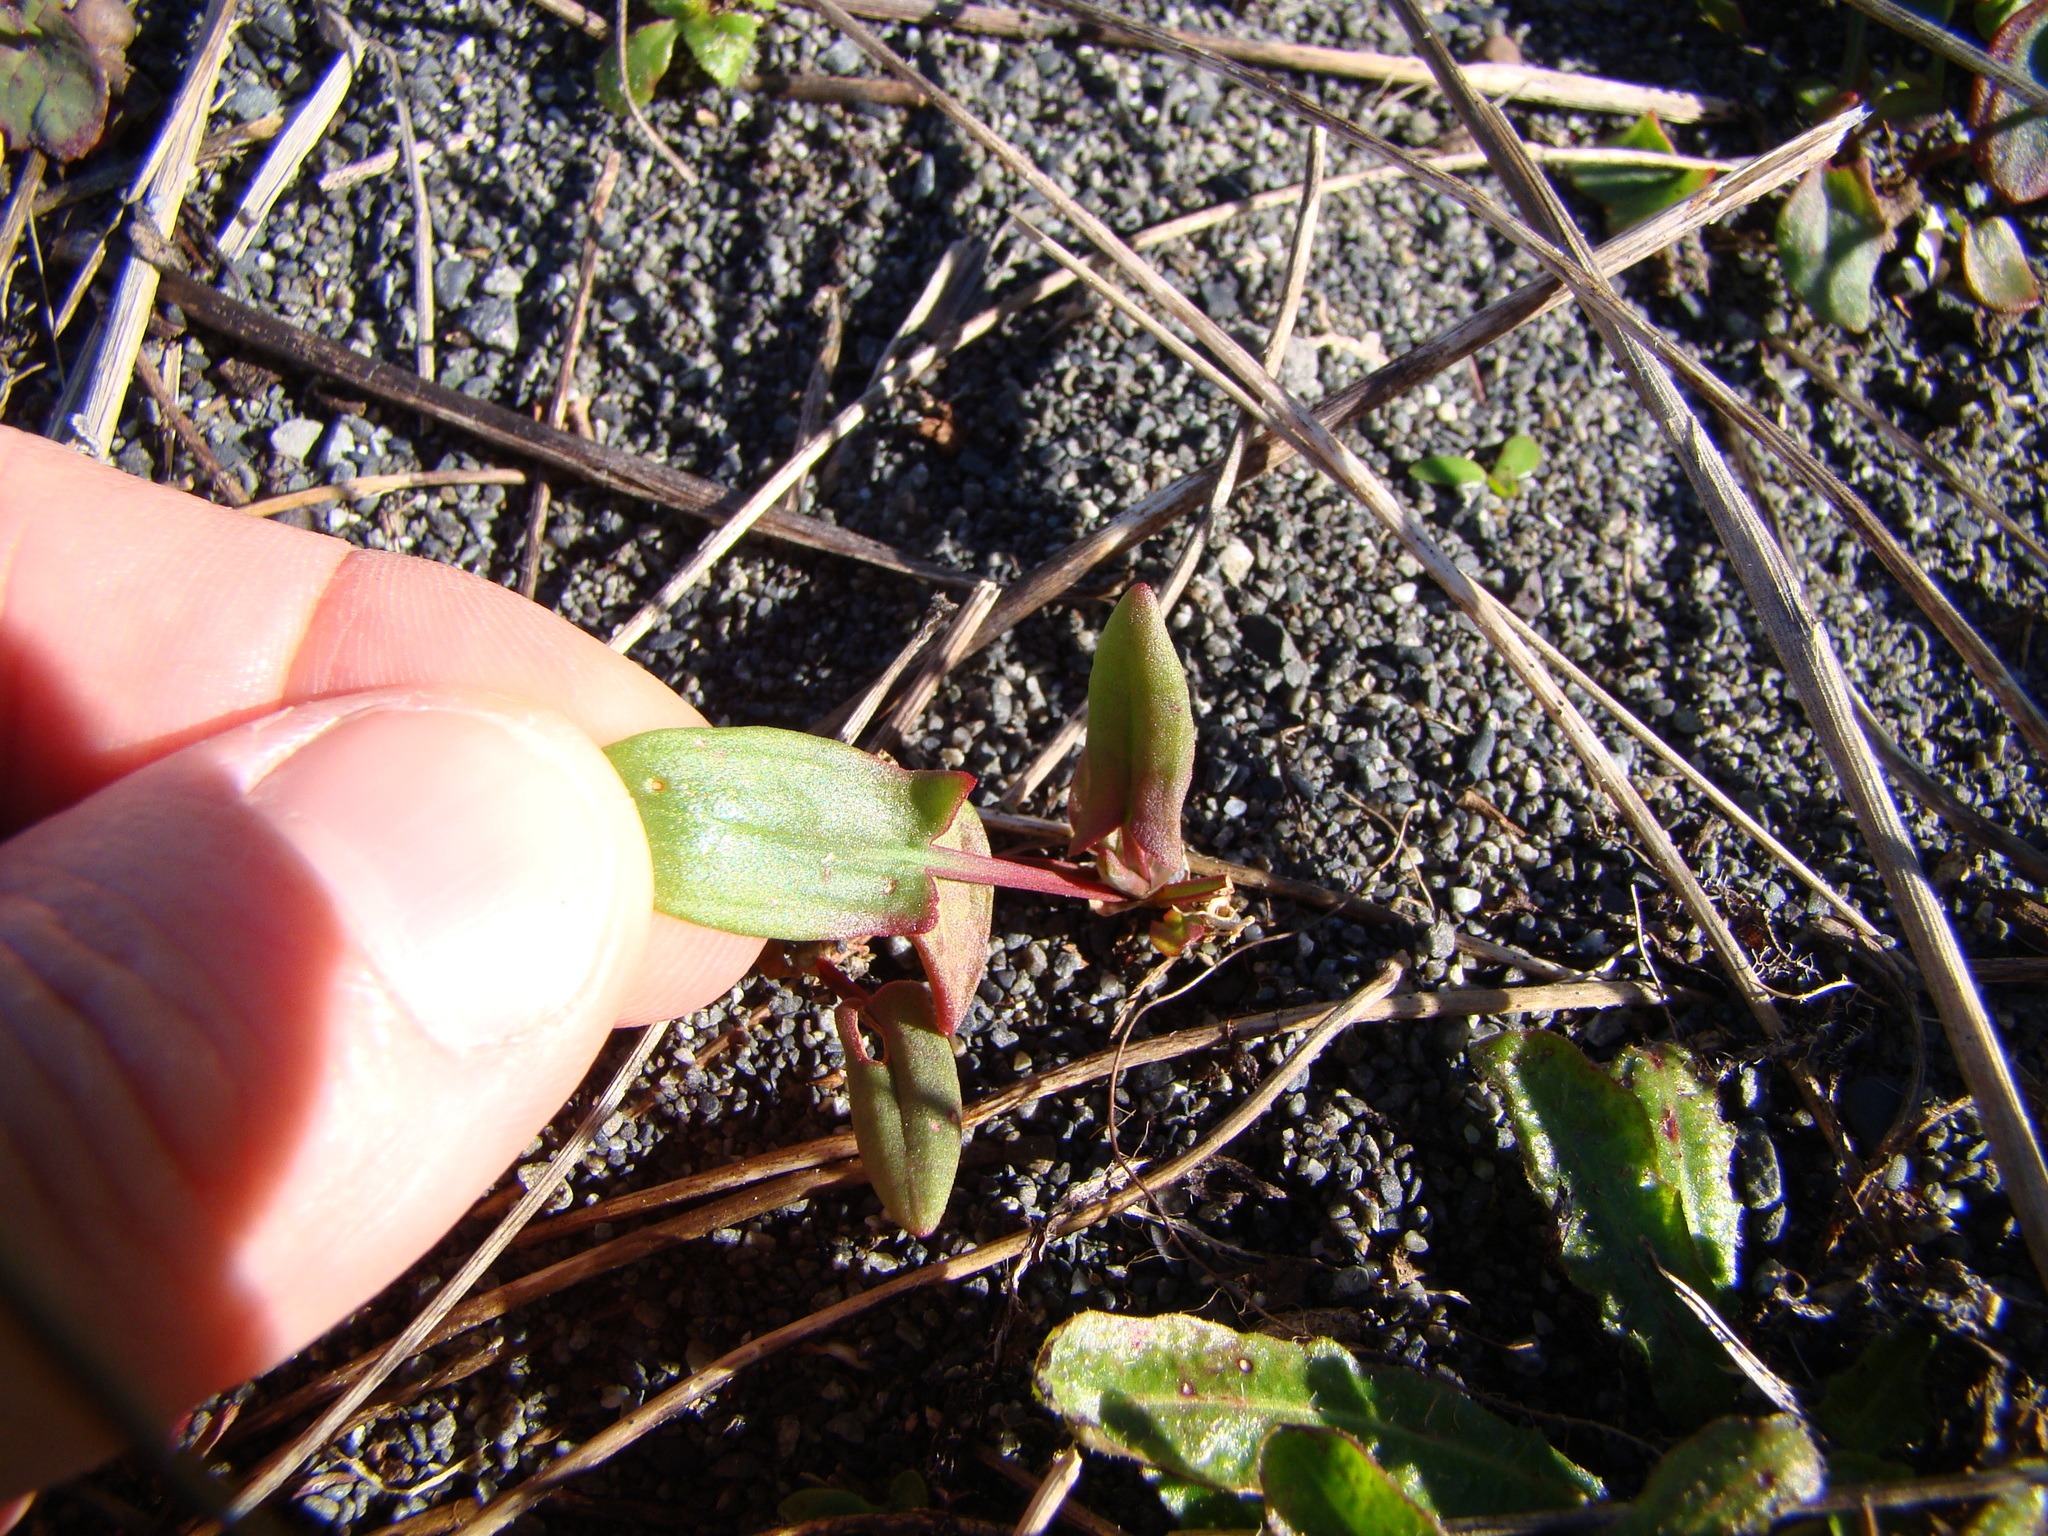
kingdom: Plantae
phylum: Tracheophyta
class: Magnoliopsida
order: Caryophyllales
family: Polygonaceae
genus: Rumex
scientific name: Rumex acetosella
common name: Common sheep sorrel
